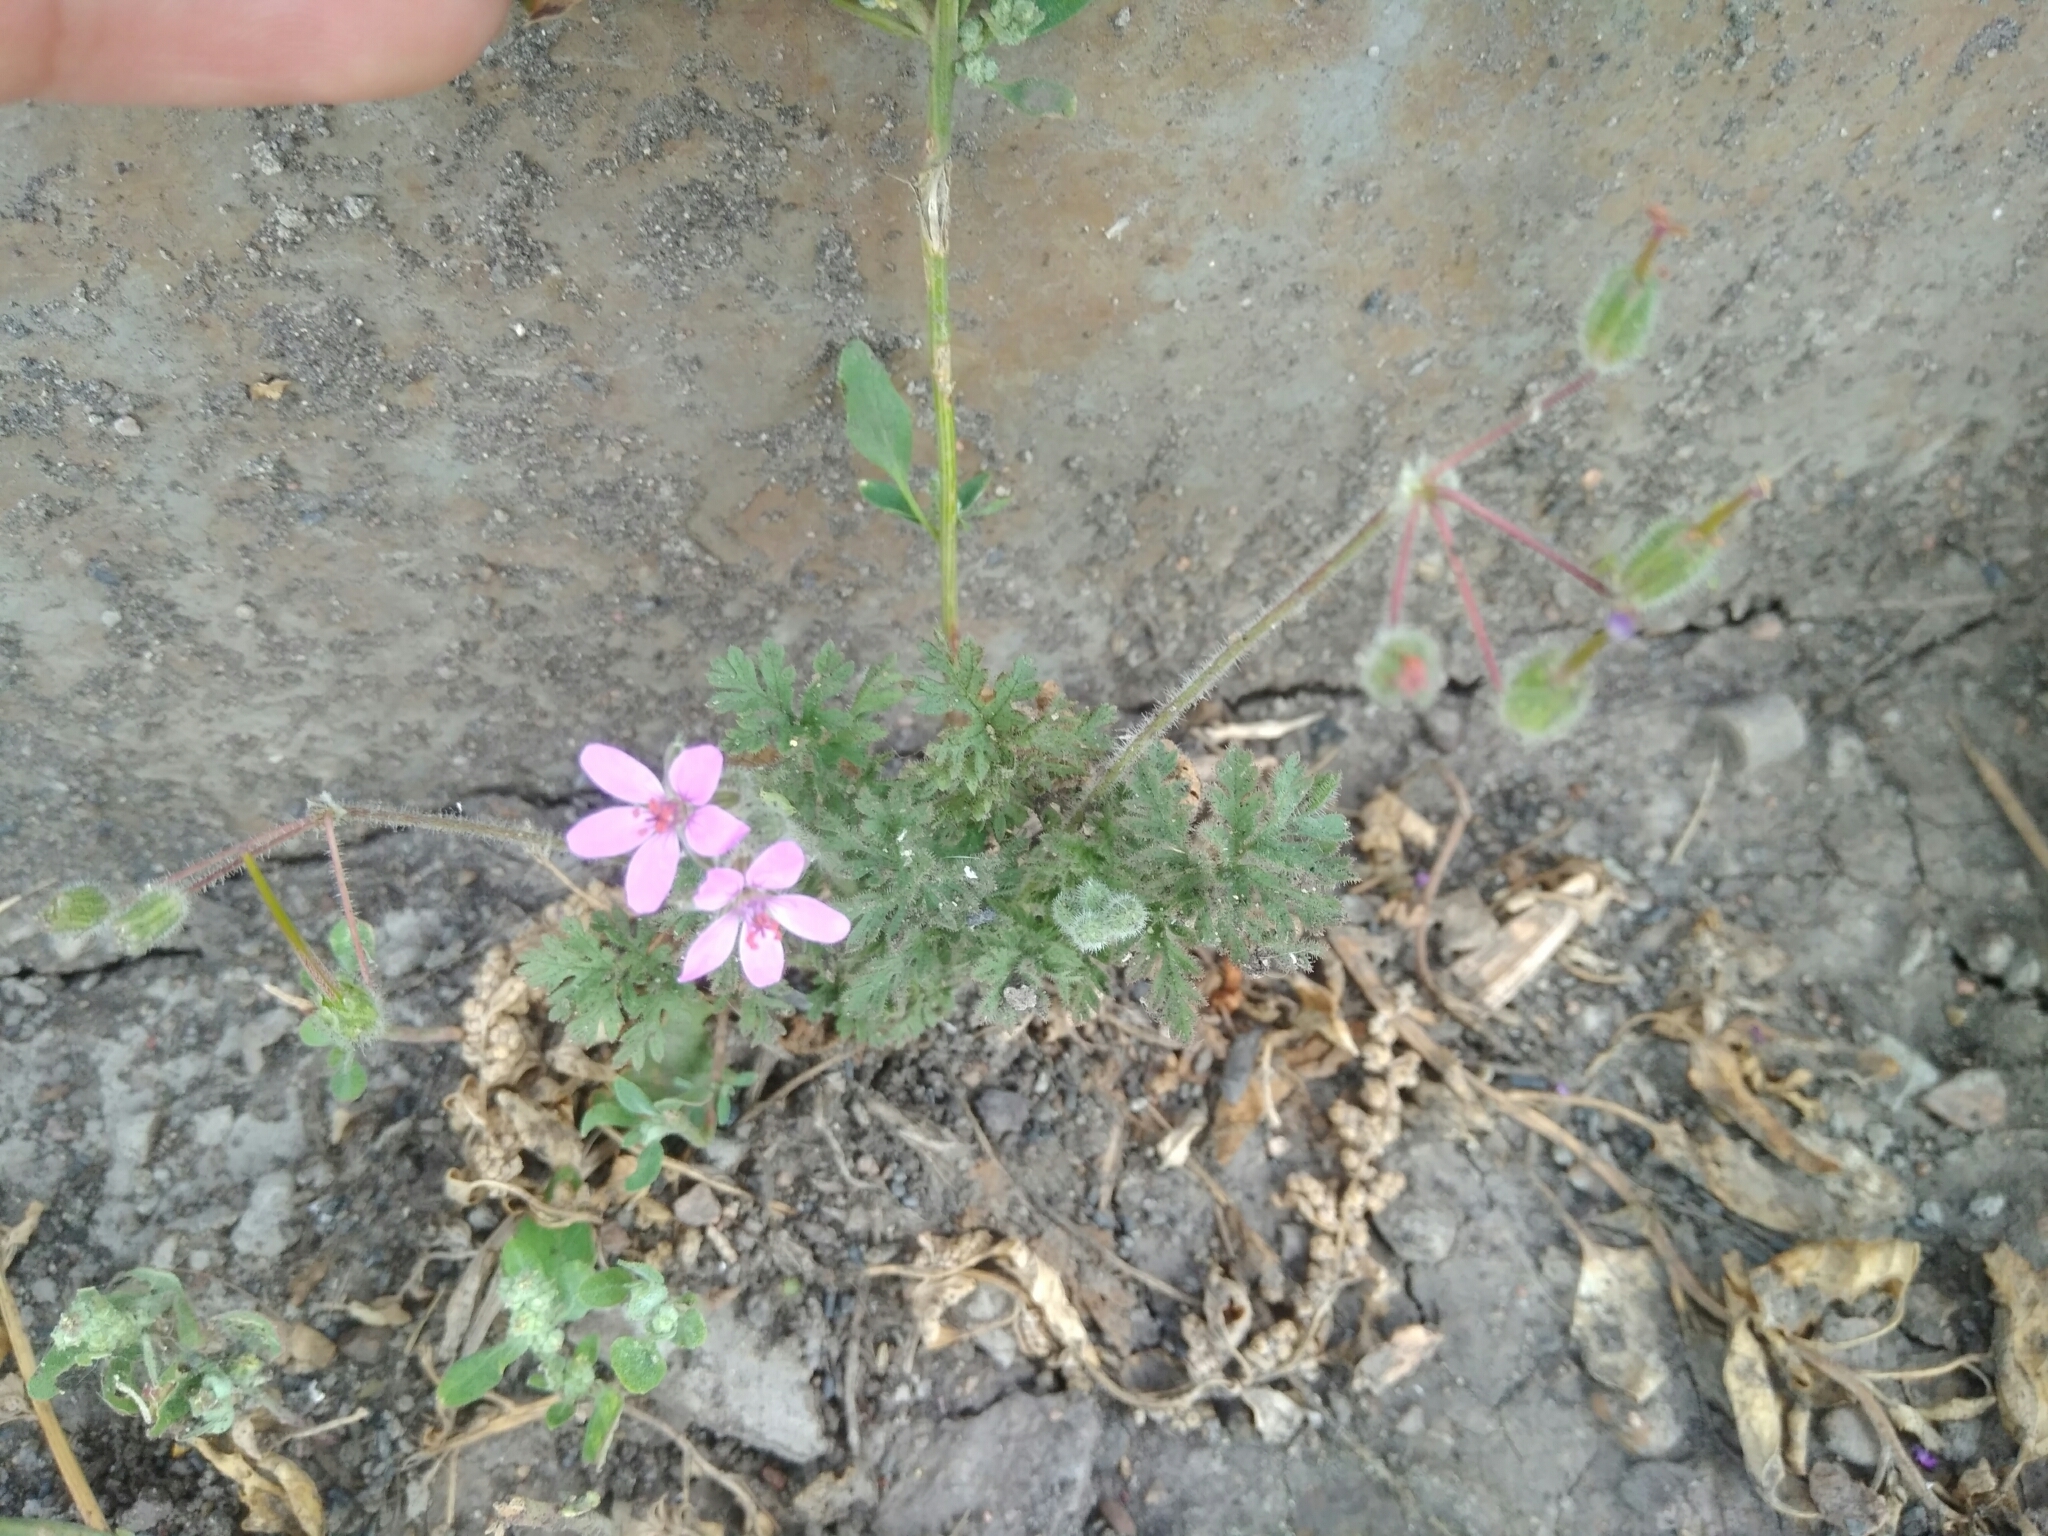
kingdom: Plantae
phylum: Tracheophyta
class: Magnoliopsida
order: Geraniales
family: Geraniaceae
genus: Erodium
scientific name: Erodium cicutarium
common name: Common stork's-bill
